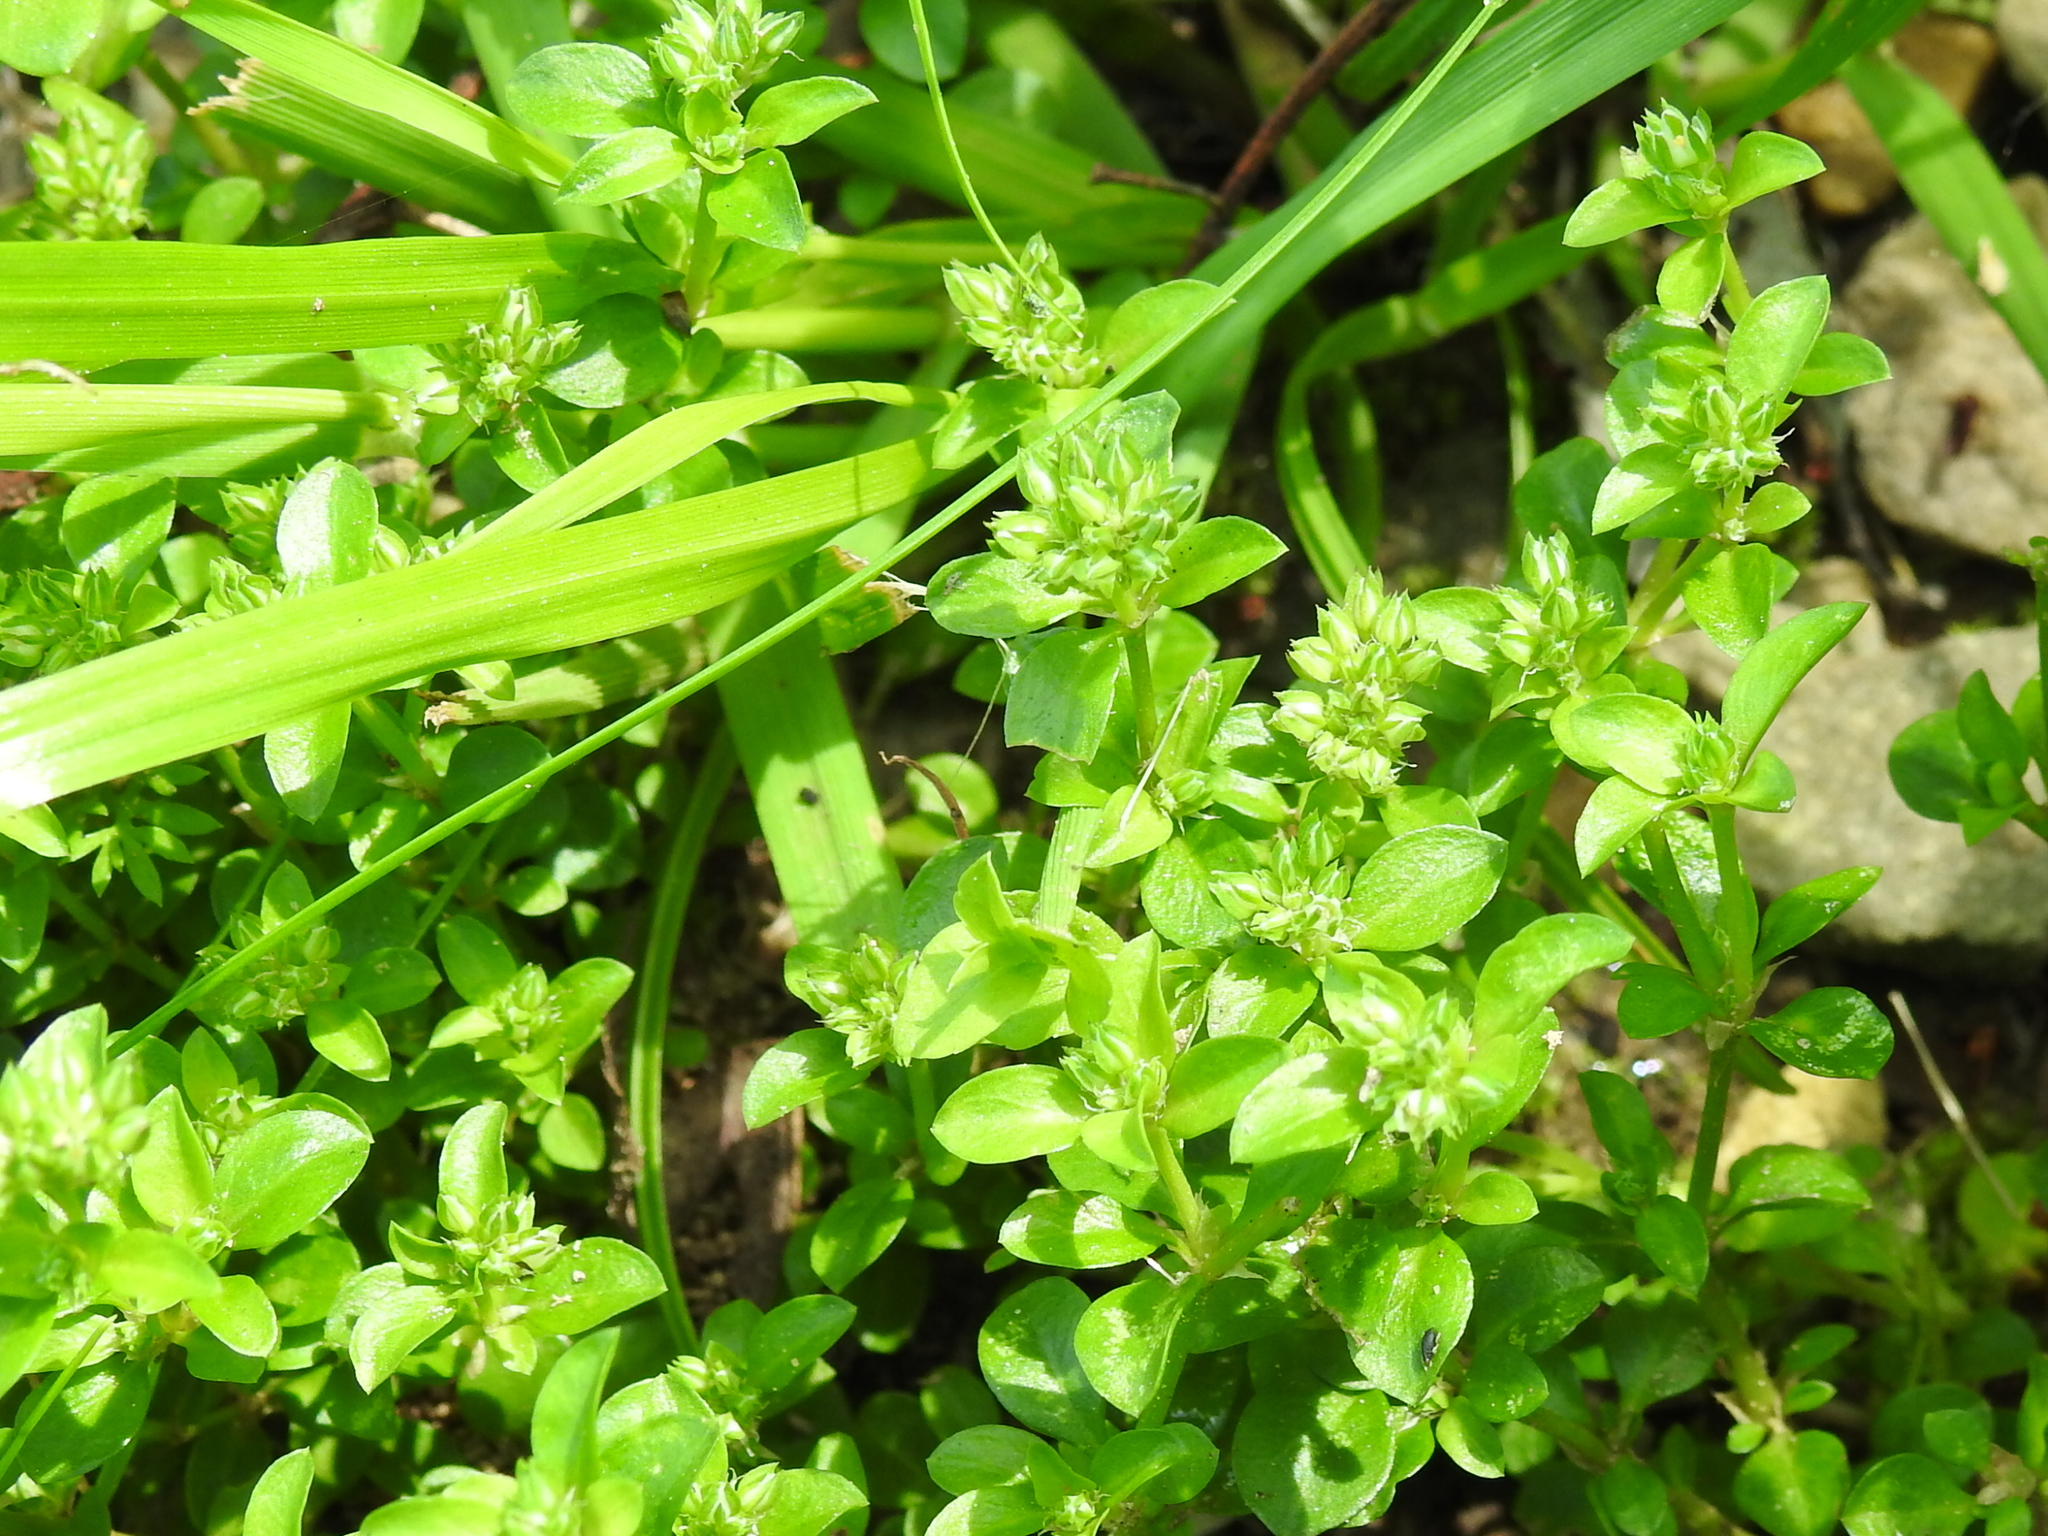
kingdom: Plantae
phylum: Tracheophyta
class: Magnoliopsida
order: Caryophyllales
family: Caryophyllaceae
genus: Polycarpon
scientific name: Polycarpon tetraphyllum
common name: Four-leaved all-seed
